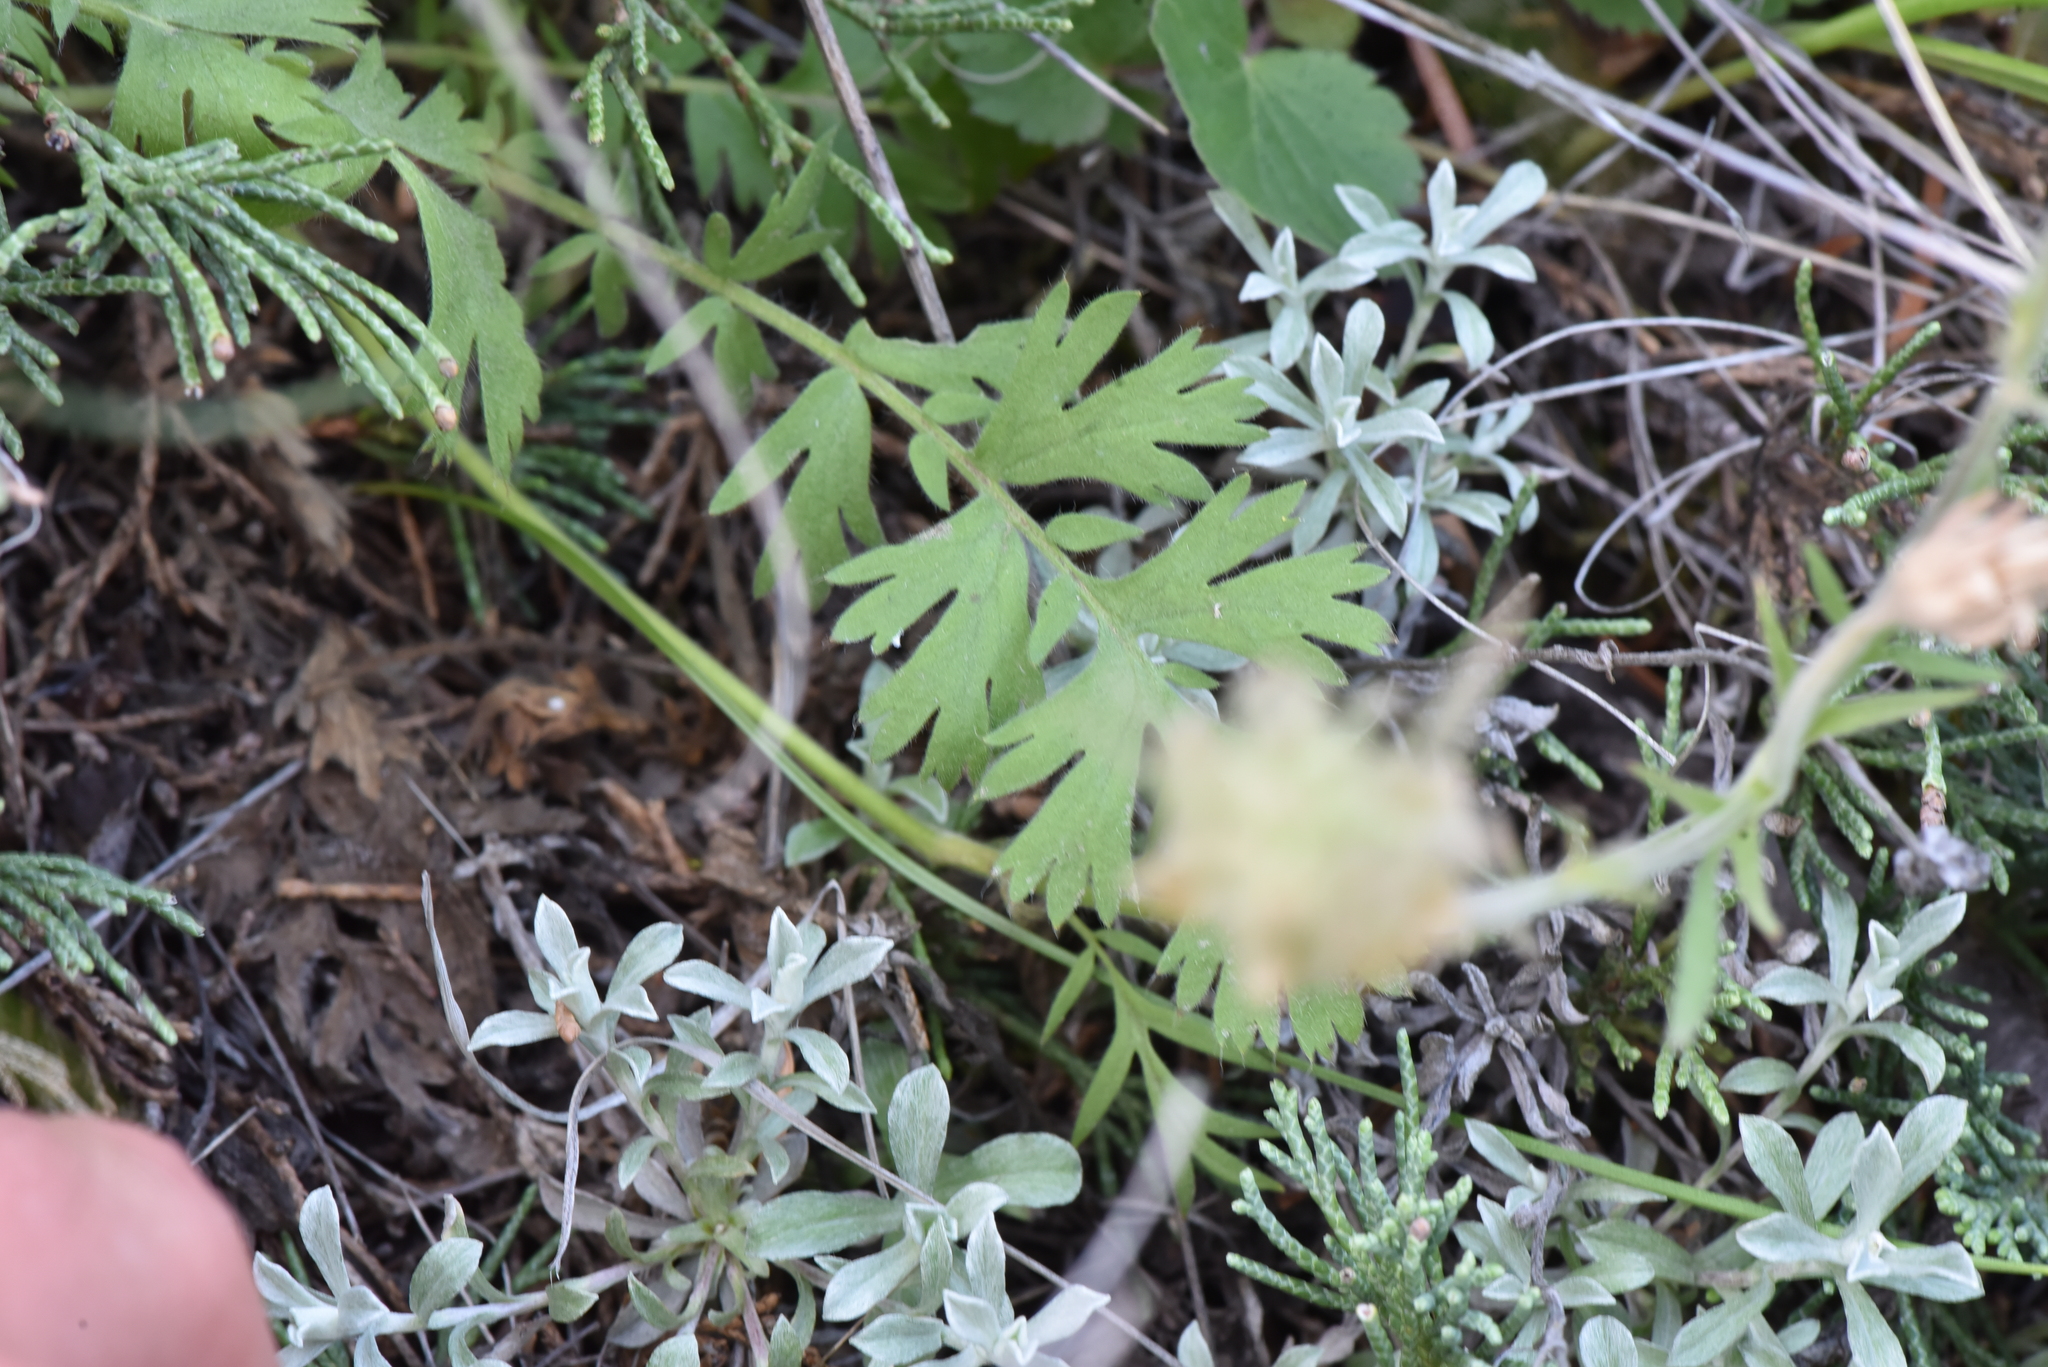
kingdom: Plantae
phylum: Tracheophyta
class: Magnoliopsida
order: Rosales
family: Rosaceae
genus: Geum
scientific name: Geum triflorum
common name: Old man's whiskers
